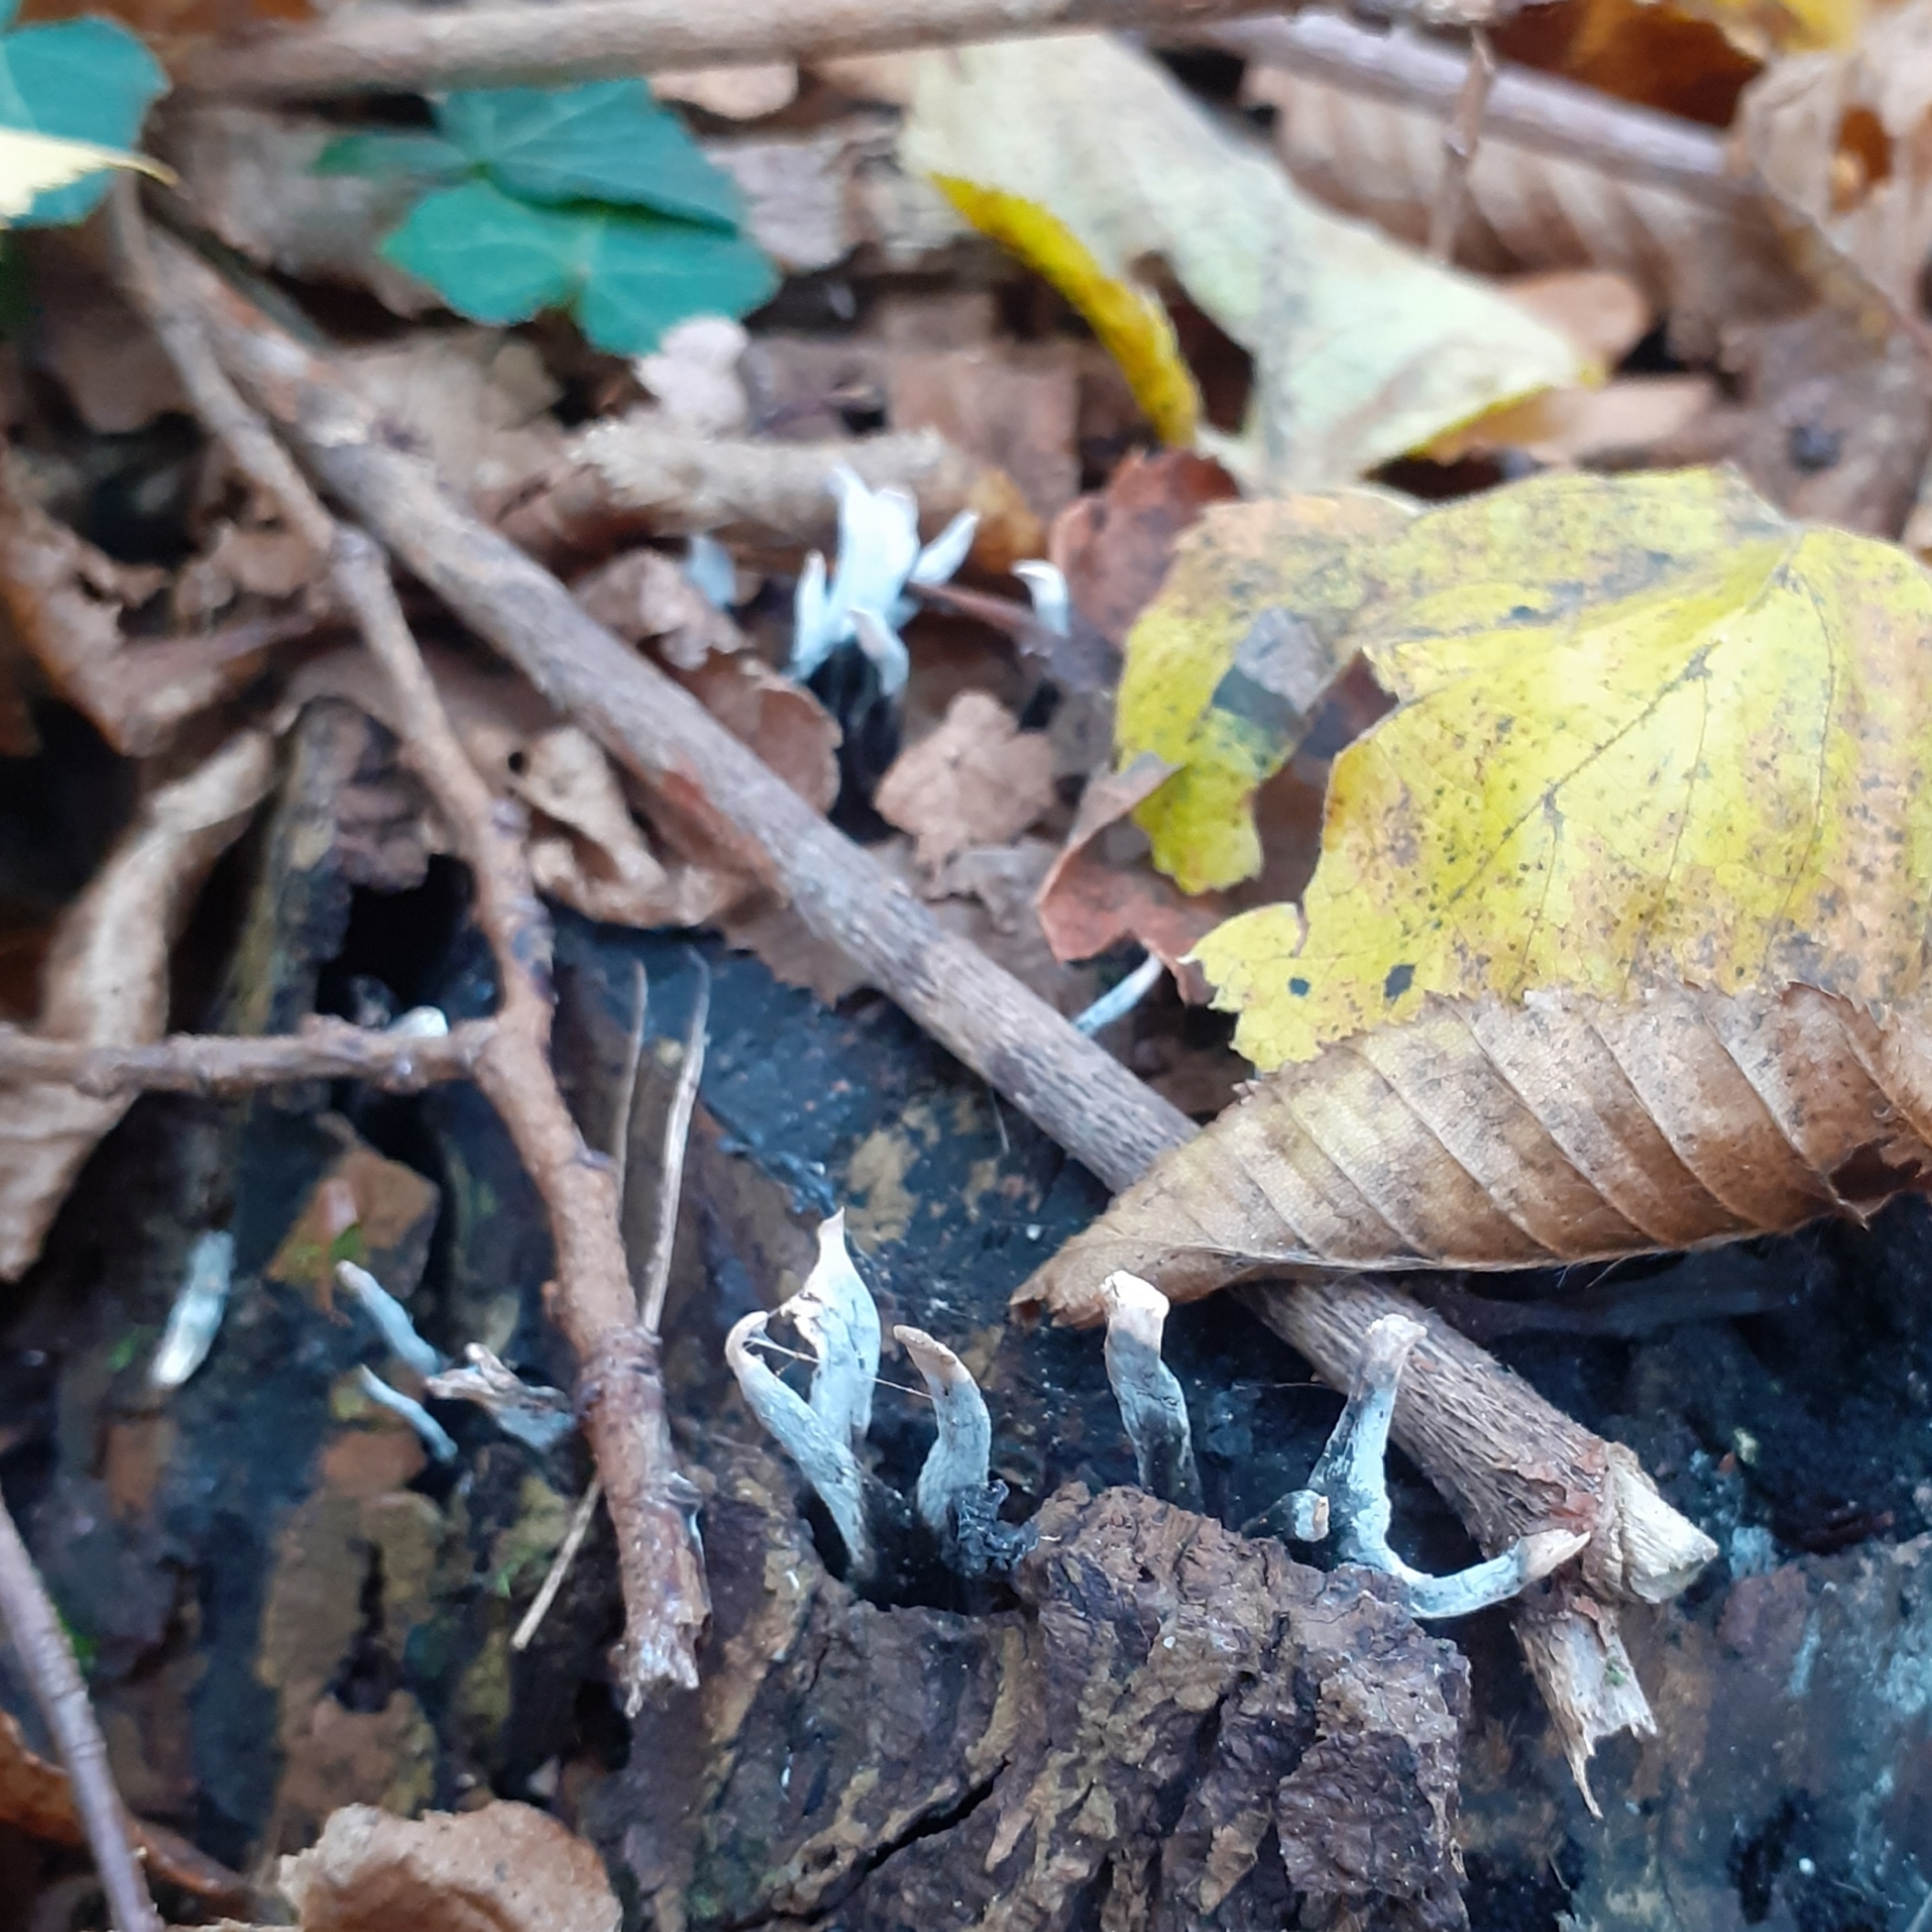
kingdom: Fungi
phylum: Ascomycota
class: Sordariomycetes
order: Xylariales
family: Xylariaceae
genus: Xylaria
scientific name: Xylaria hypoxylon
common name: Candle-snuff fungus
